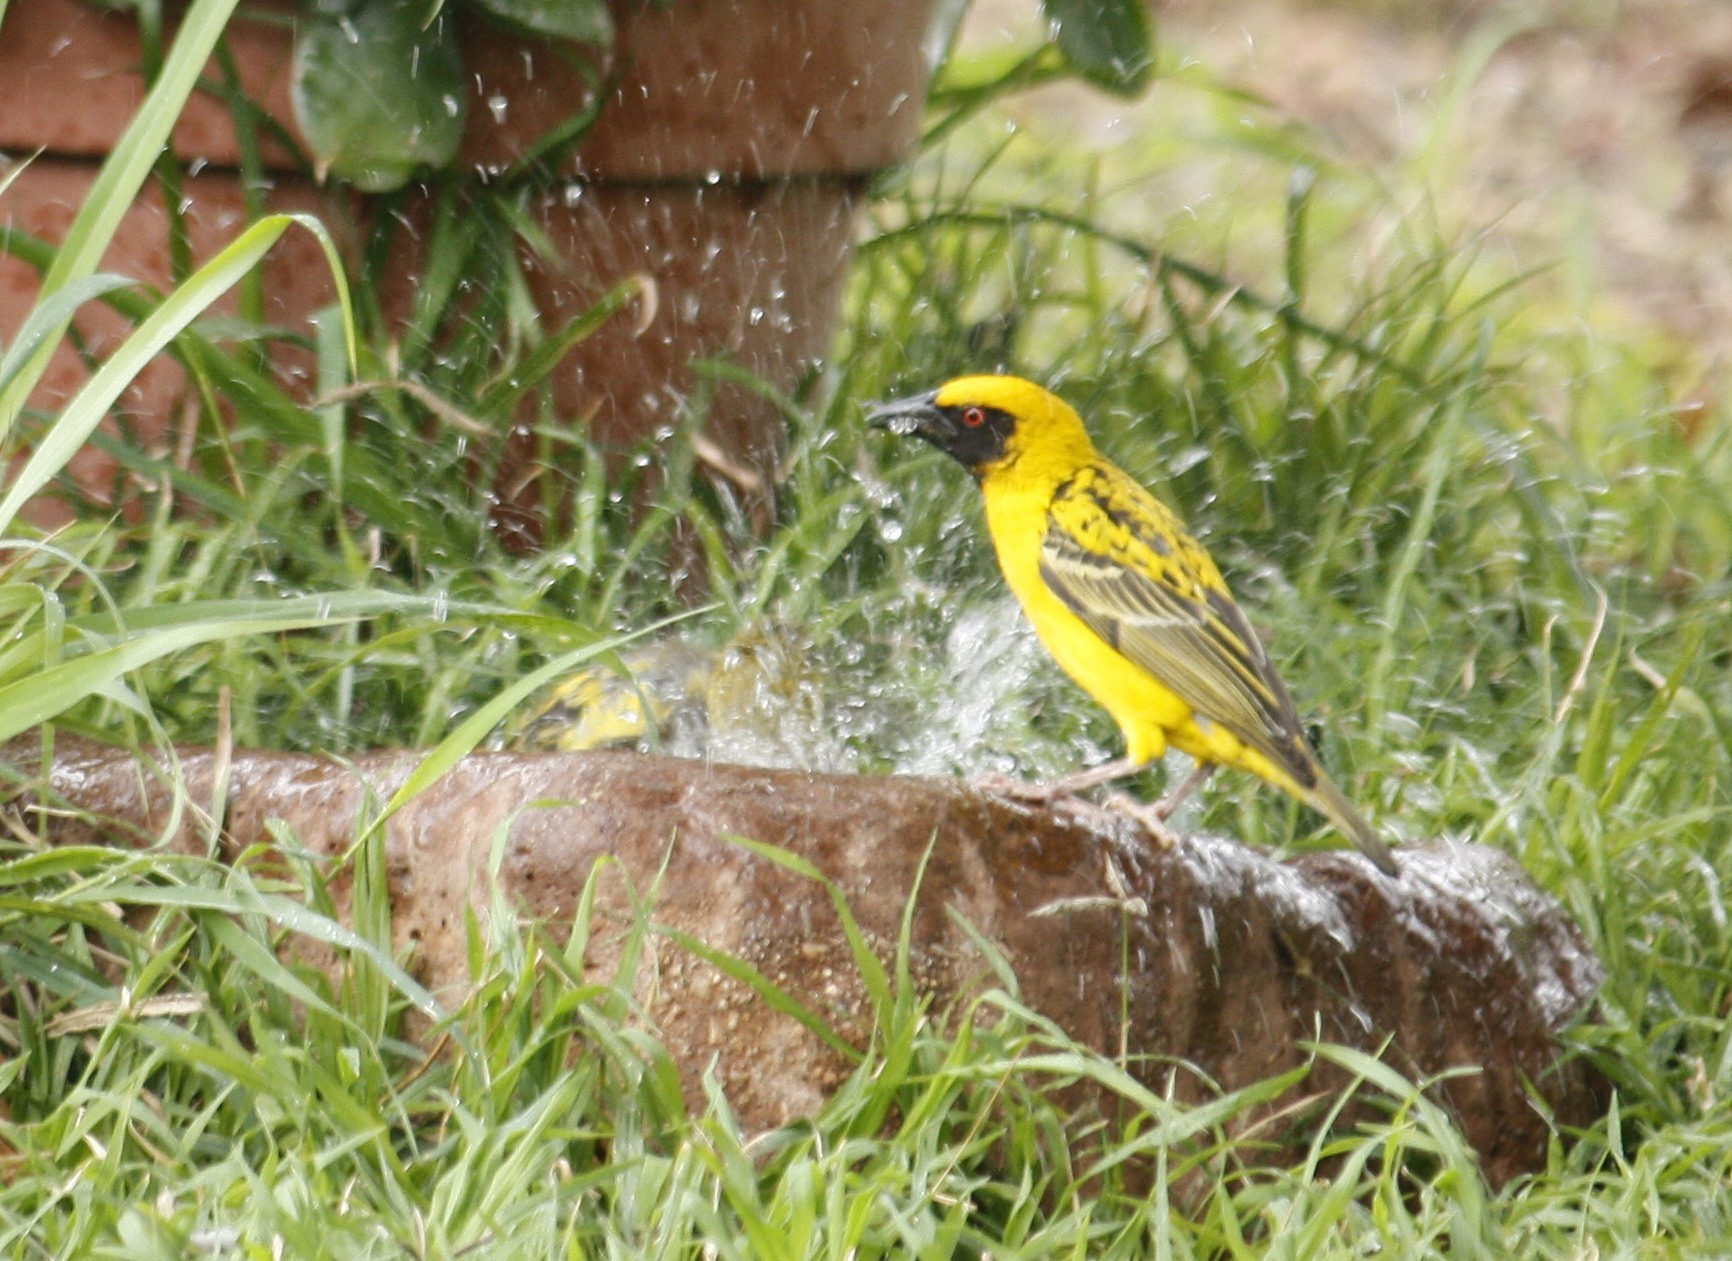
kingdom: Animalia
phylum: Chordata
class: Aves
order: Passeriformes
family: Ploceidae
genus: Ploceus
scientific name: Ploceus cucullatus
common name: Village weaver
